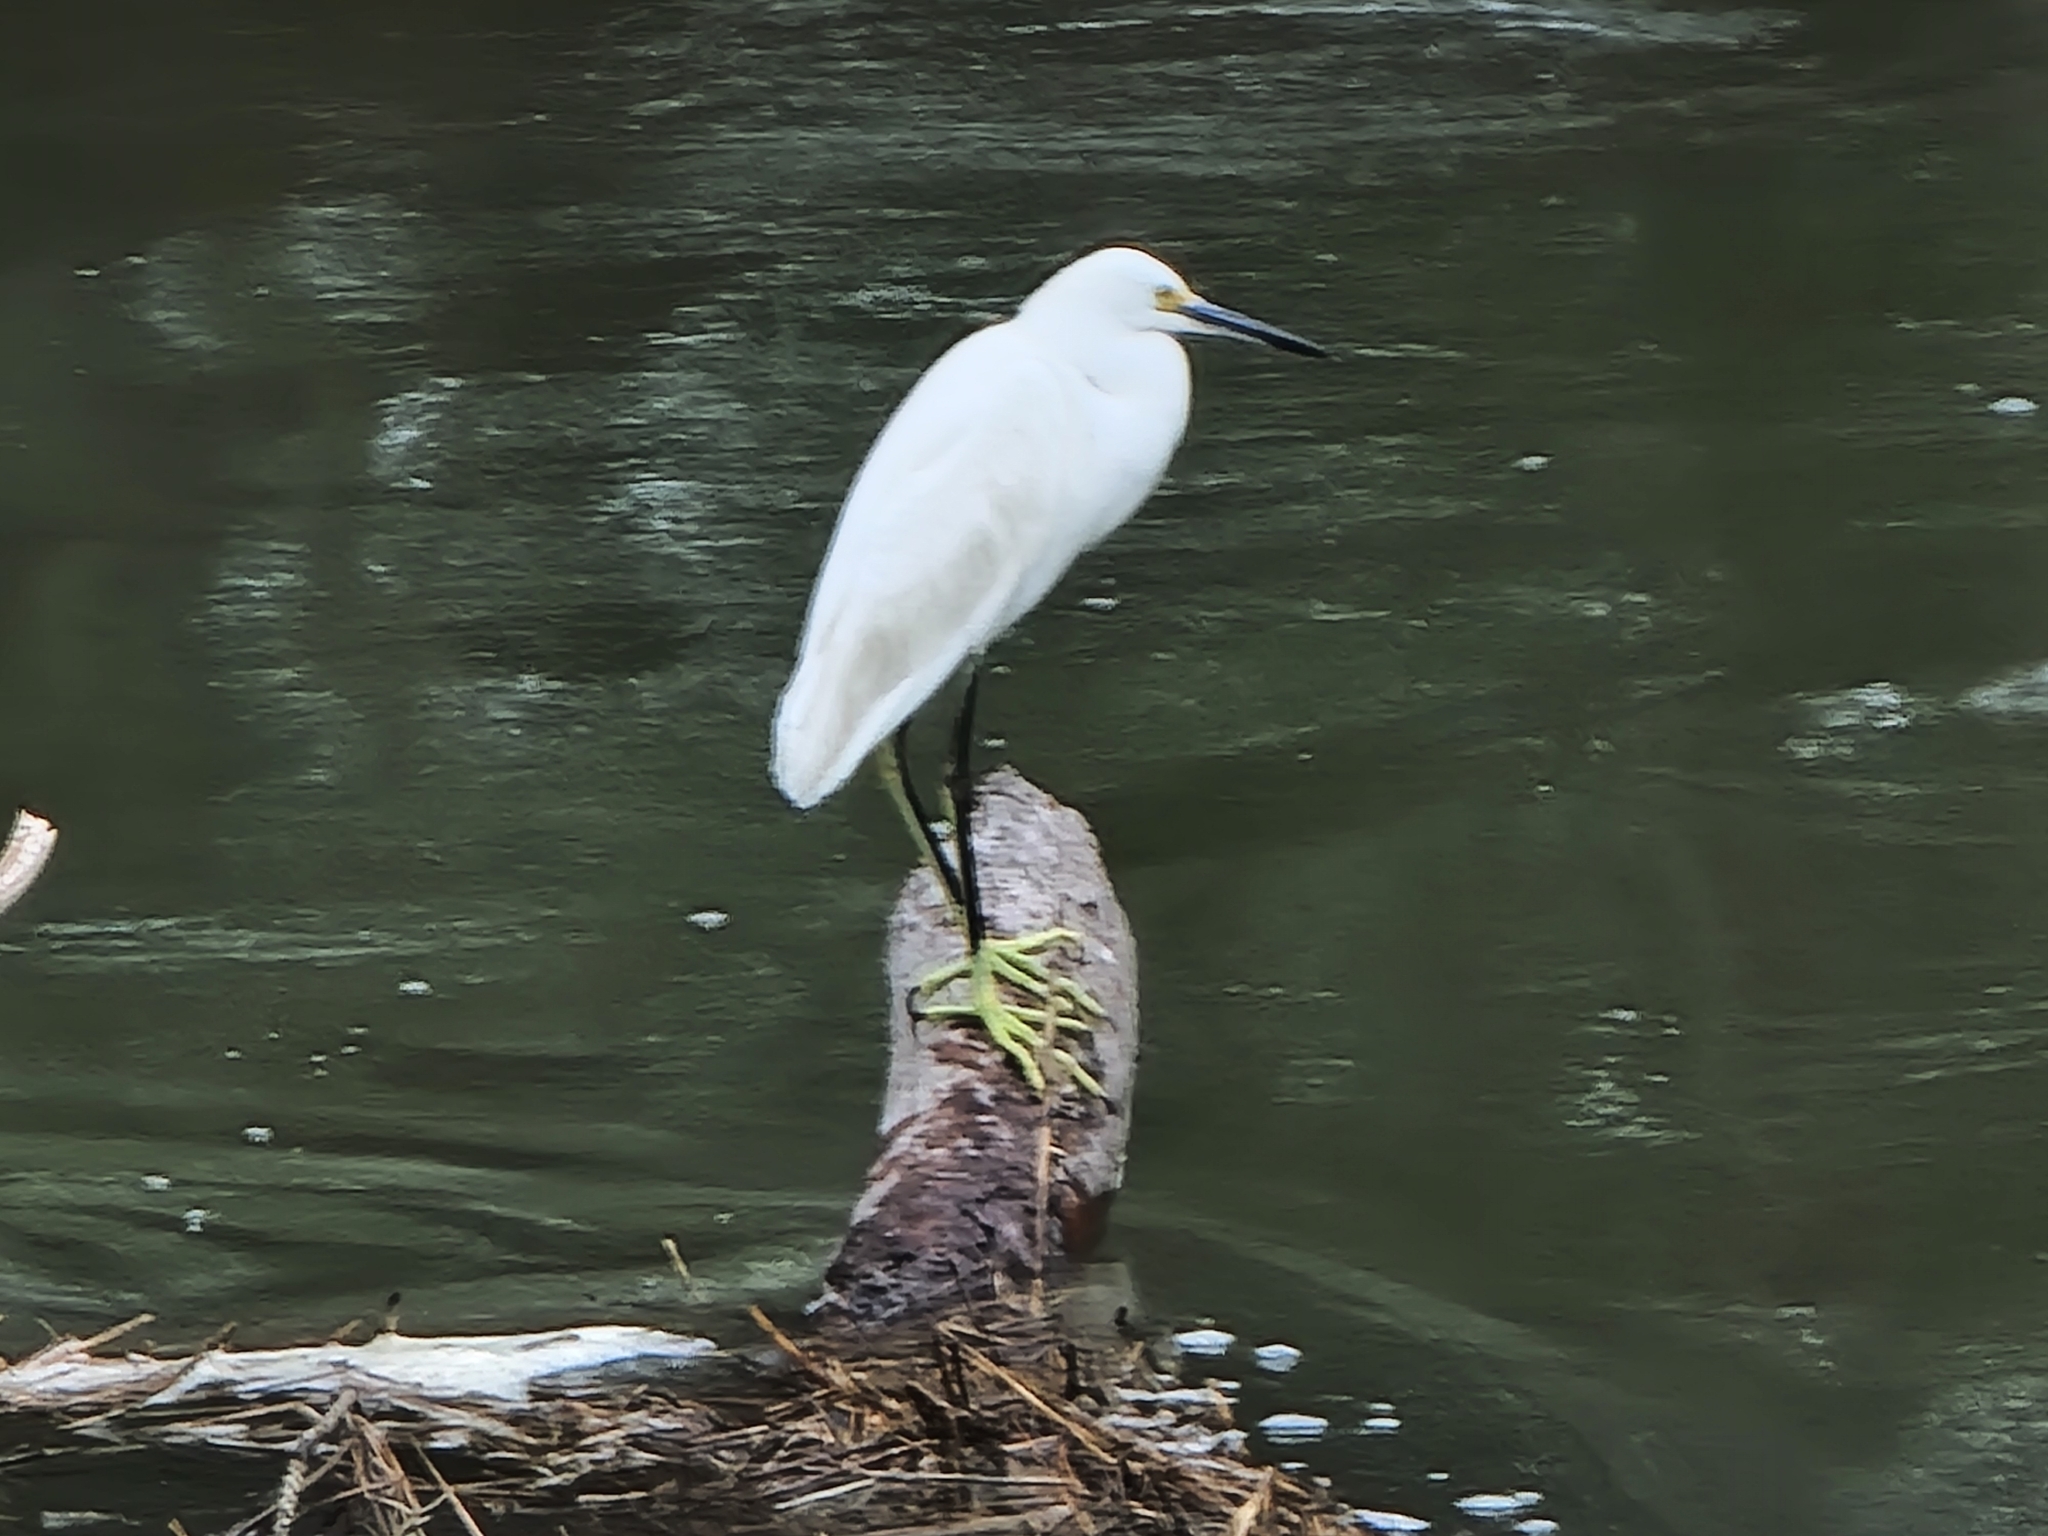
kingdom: Animalia
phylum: Chordata
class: Aves
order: Pelecaniformes
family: Ardeidae
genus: Egretta
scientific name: Egretta thula
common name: Snowy egret
